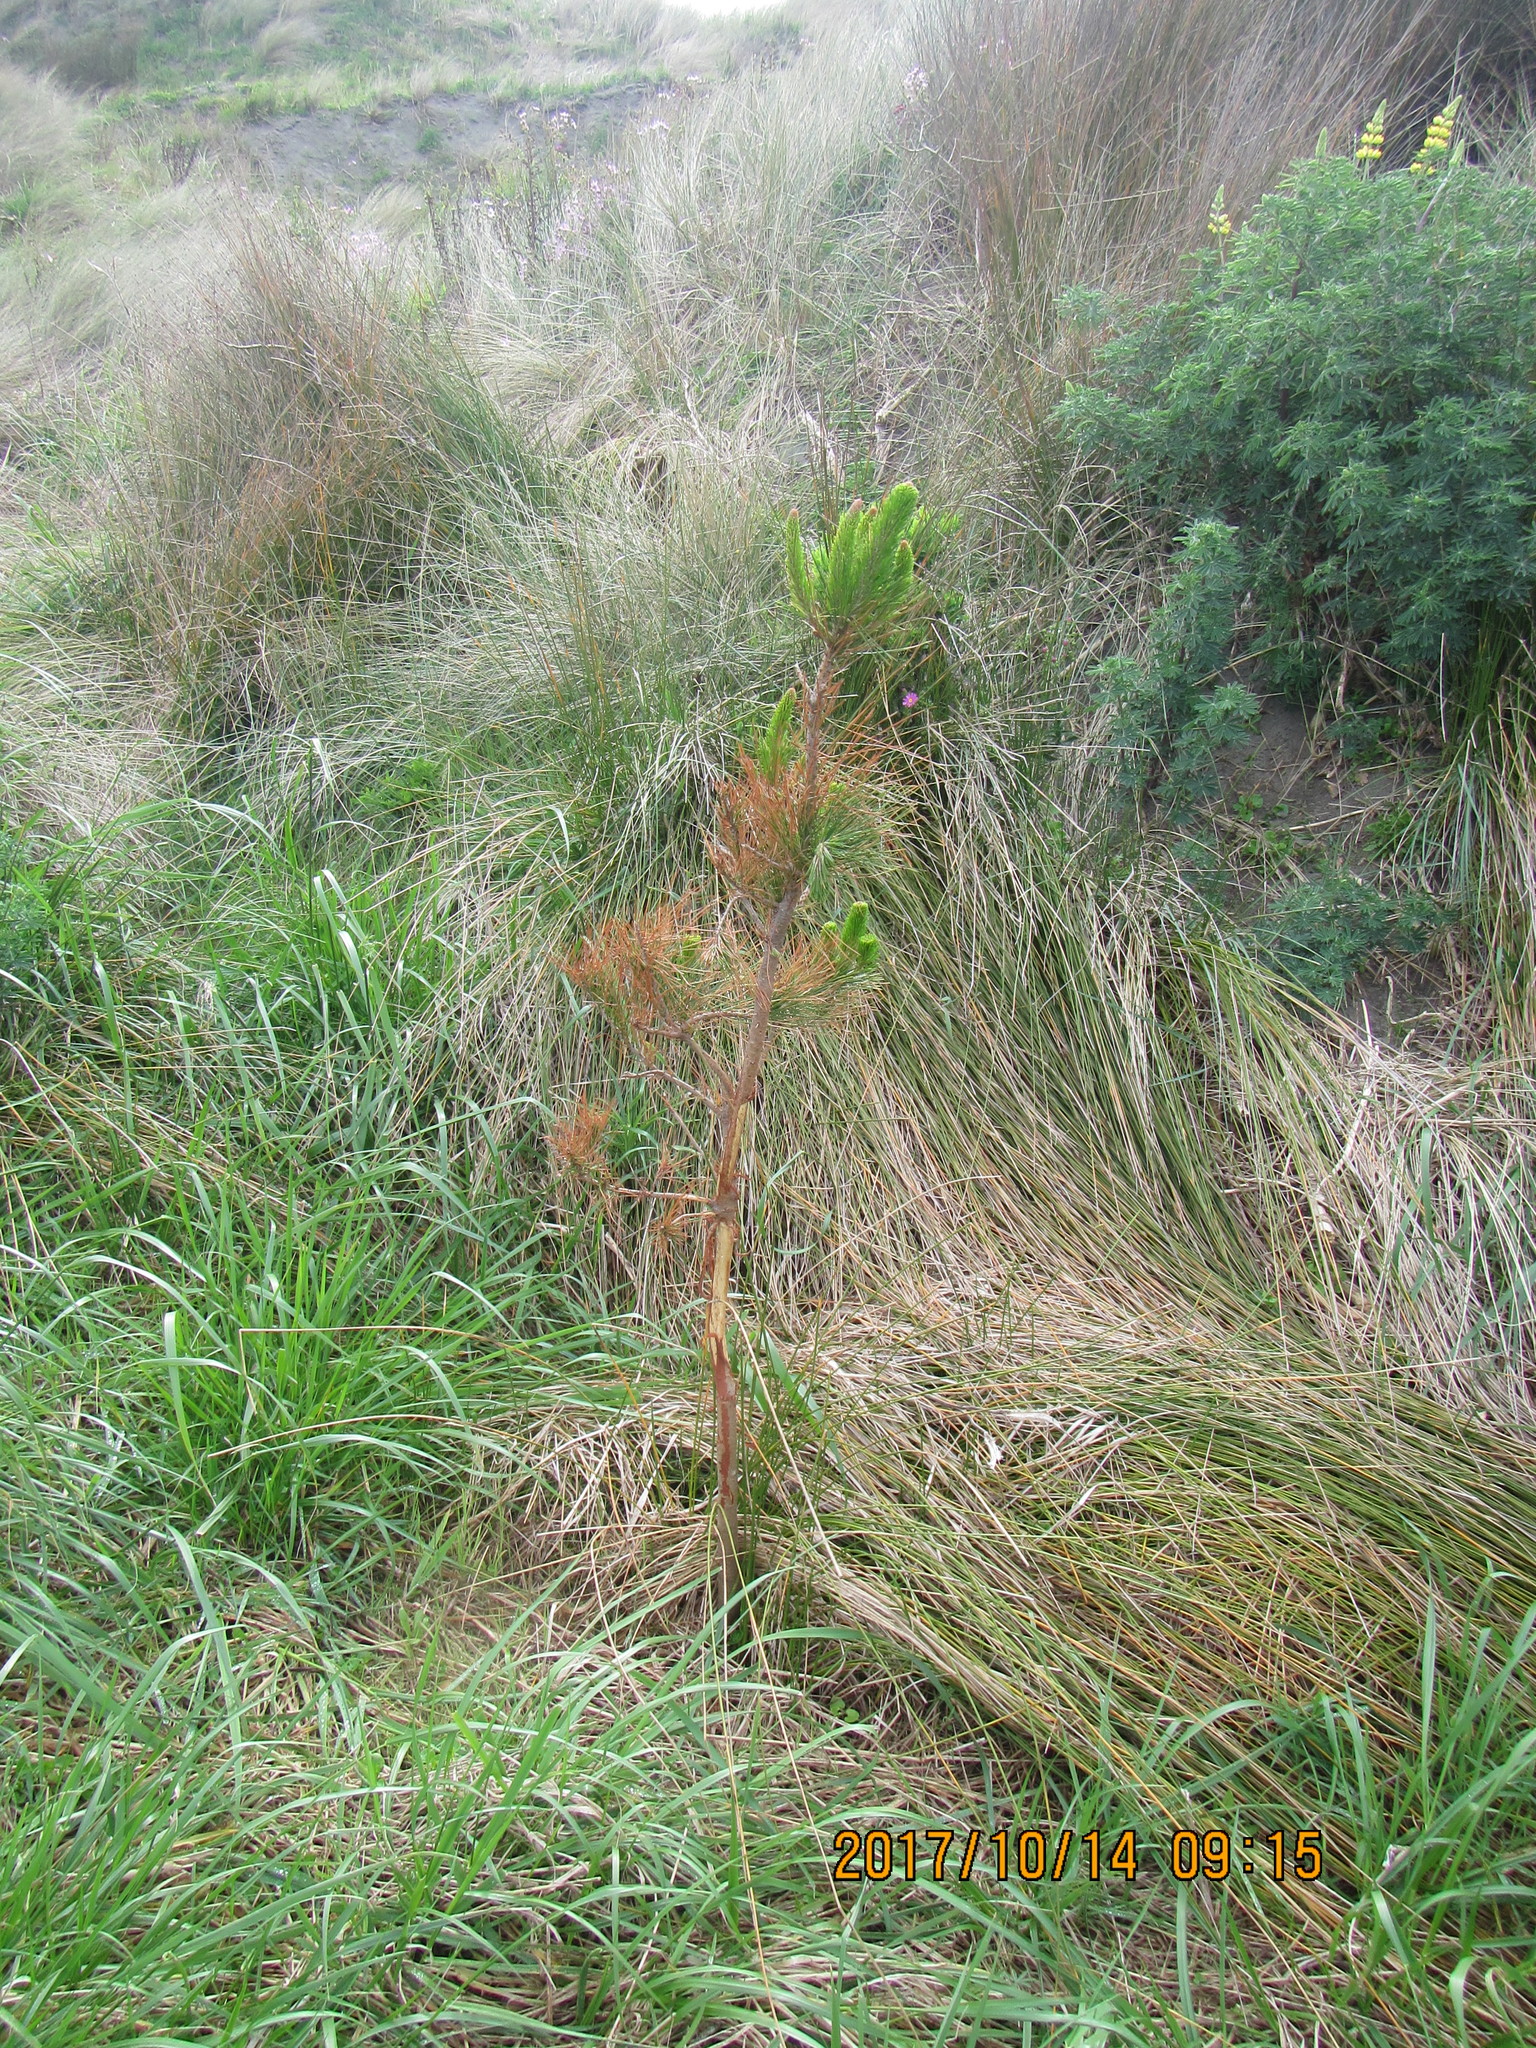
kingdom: Plantae
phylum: Tracheophyta
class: Pinopsida
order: Pinales
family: Pinaceae
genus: Pinus
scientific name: Pinus radiata
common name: Monterey pine
